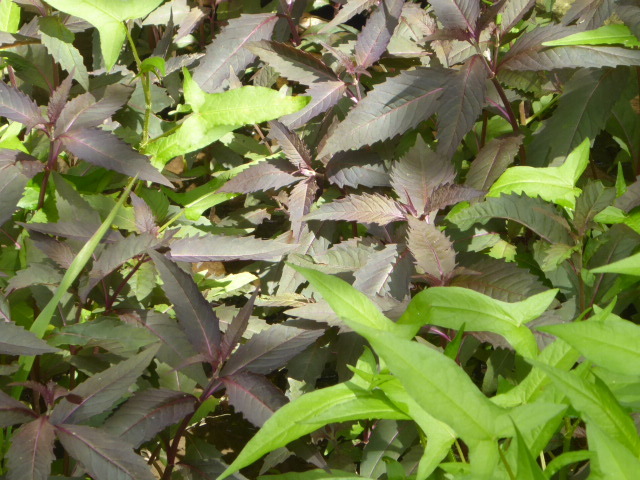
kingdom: Plantae
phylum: Tracheophyta
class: Magnoliopsida
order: Lamiales
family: Lamiaceae
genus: Lycopus
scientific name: Lycopus uniflorus
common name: Northern bugleweed
